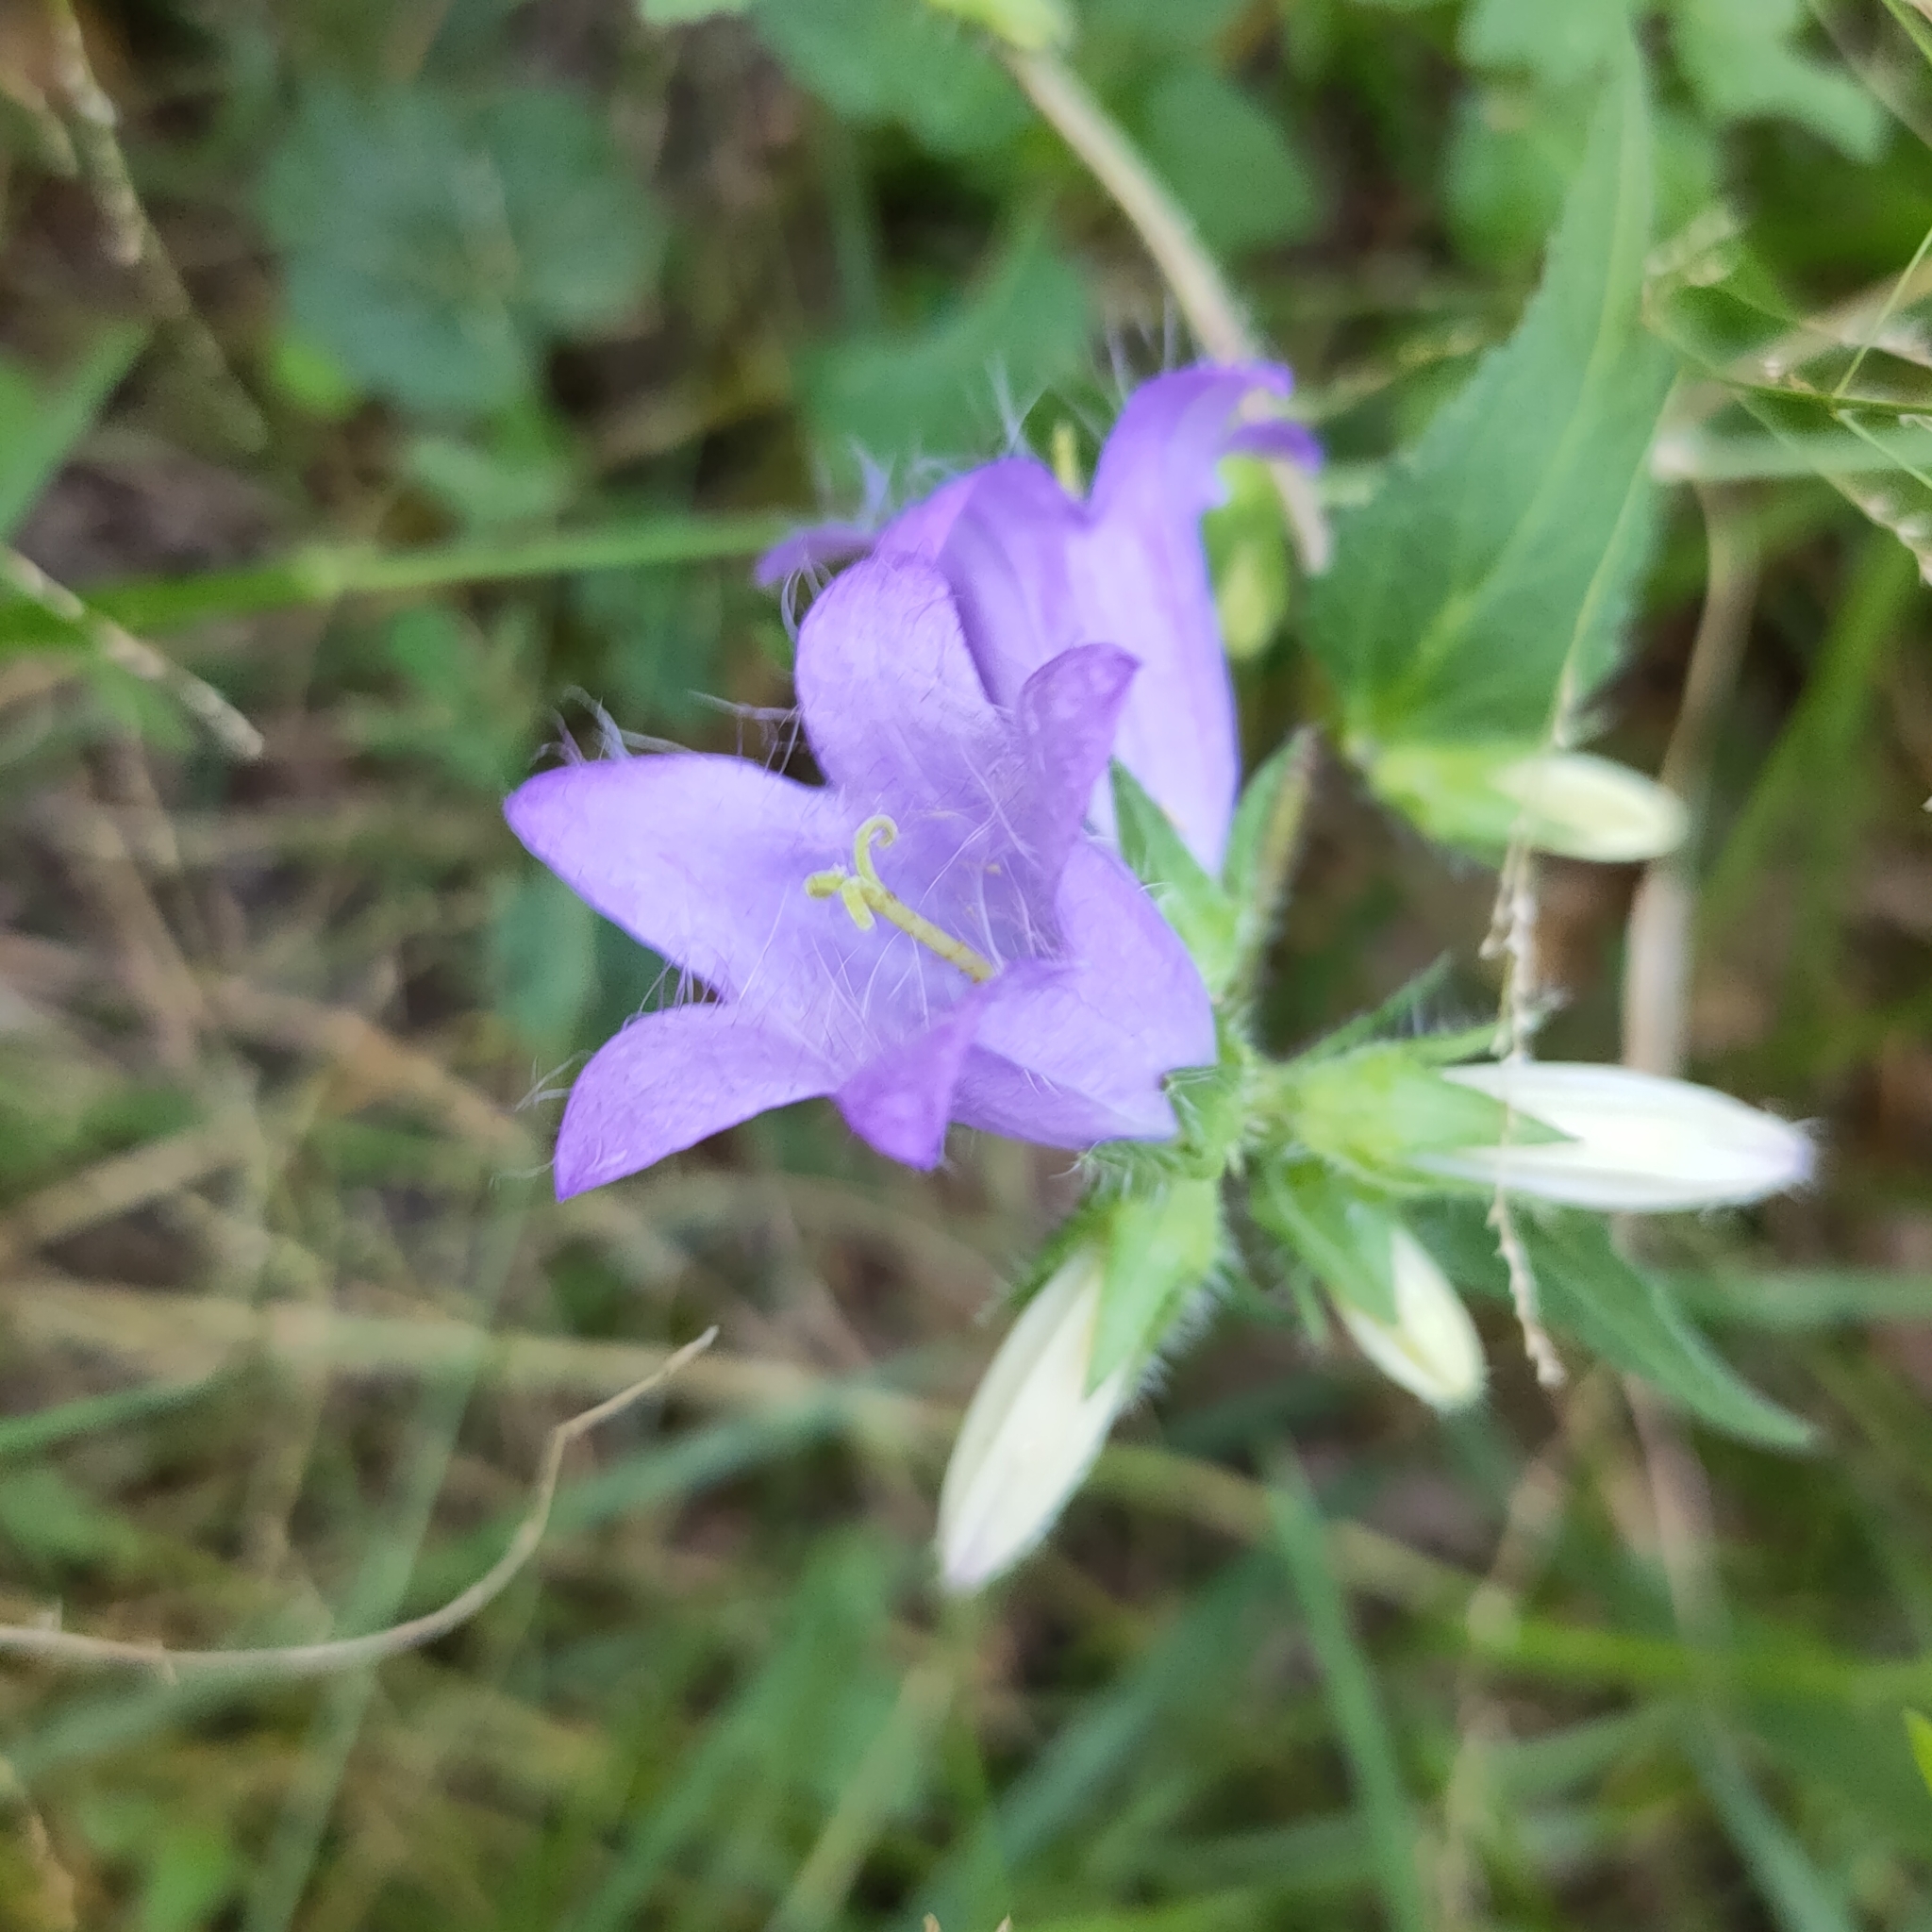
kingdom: Plantae
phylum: Tracheophyta
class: Magnoliopsida
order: Asterales
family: Campanulaceae
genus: Campanula
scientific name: Campanula trachelium
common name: Nettle-leaved bellflower
